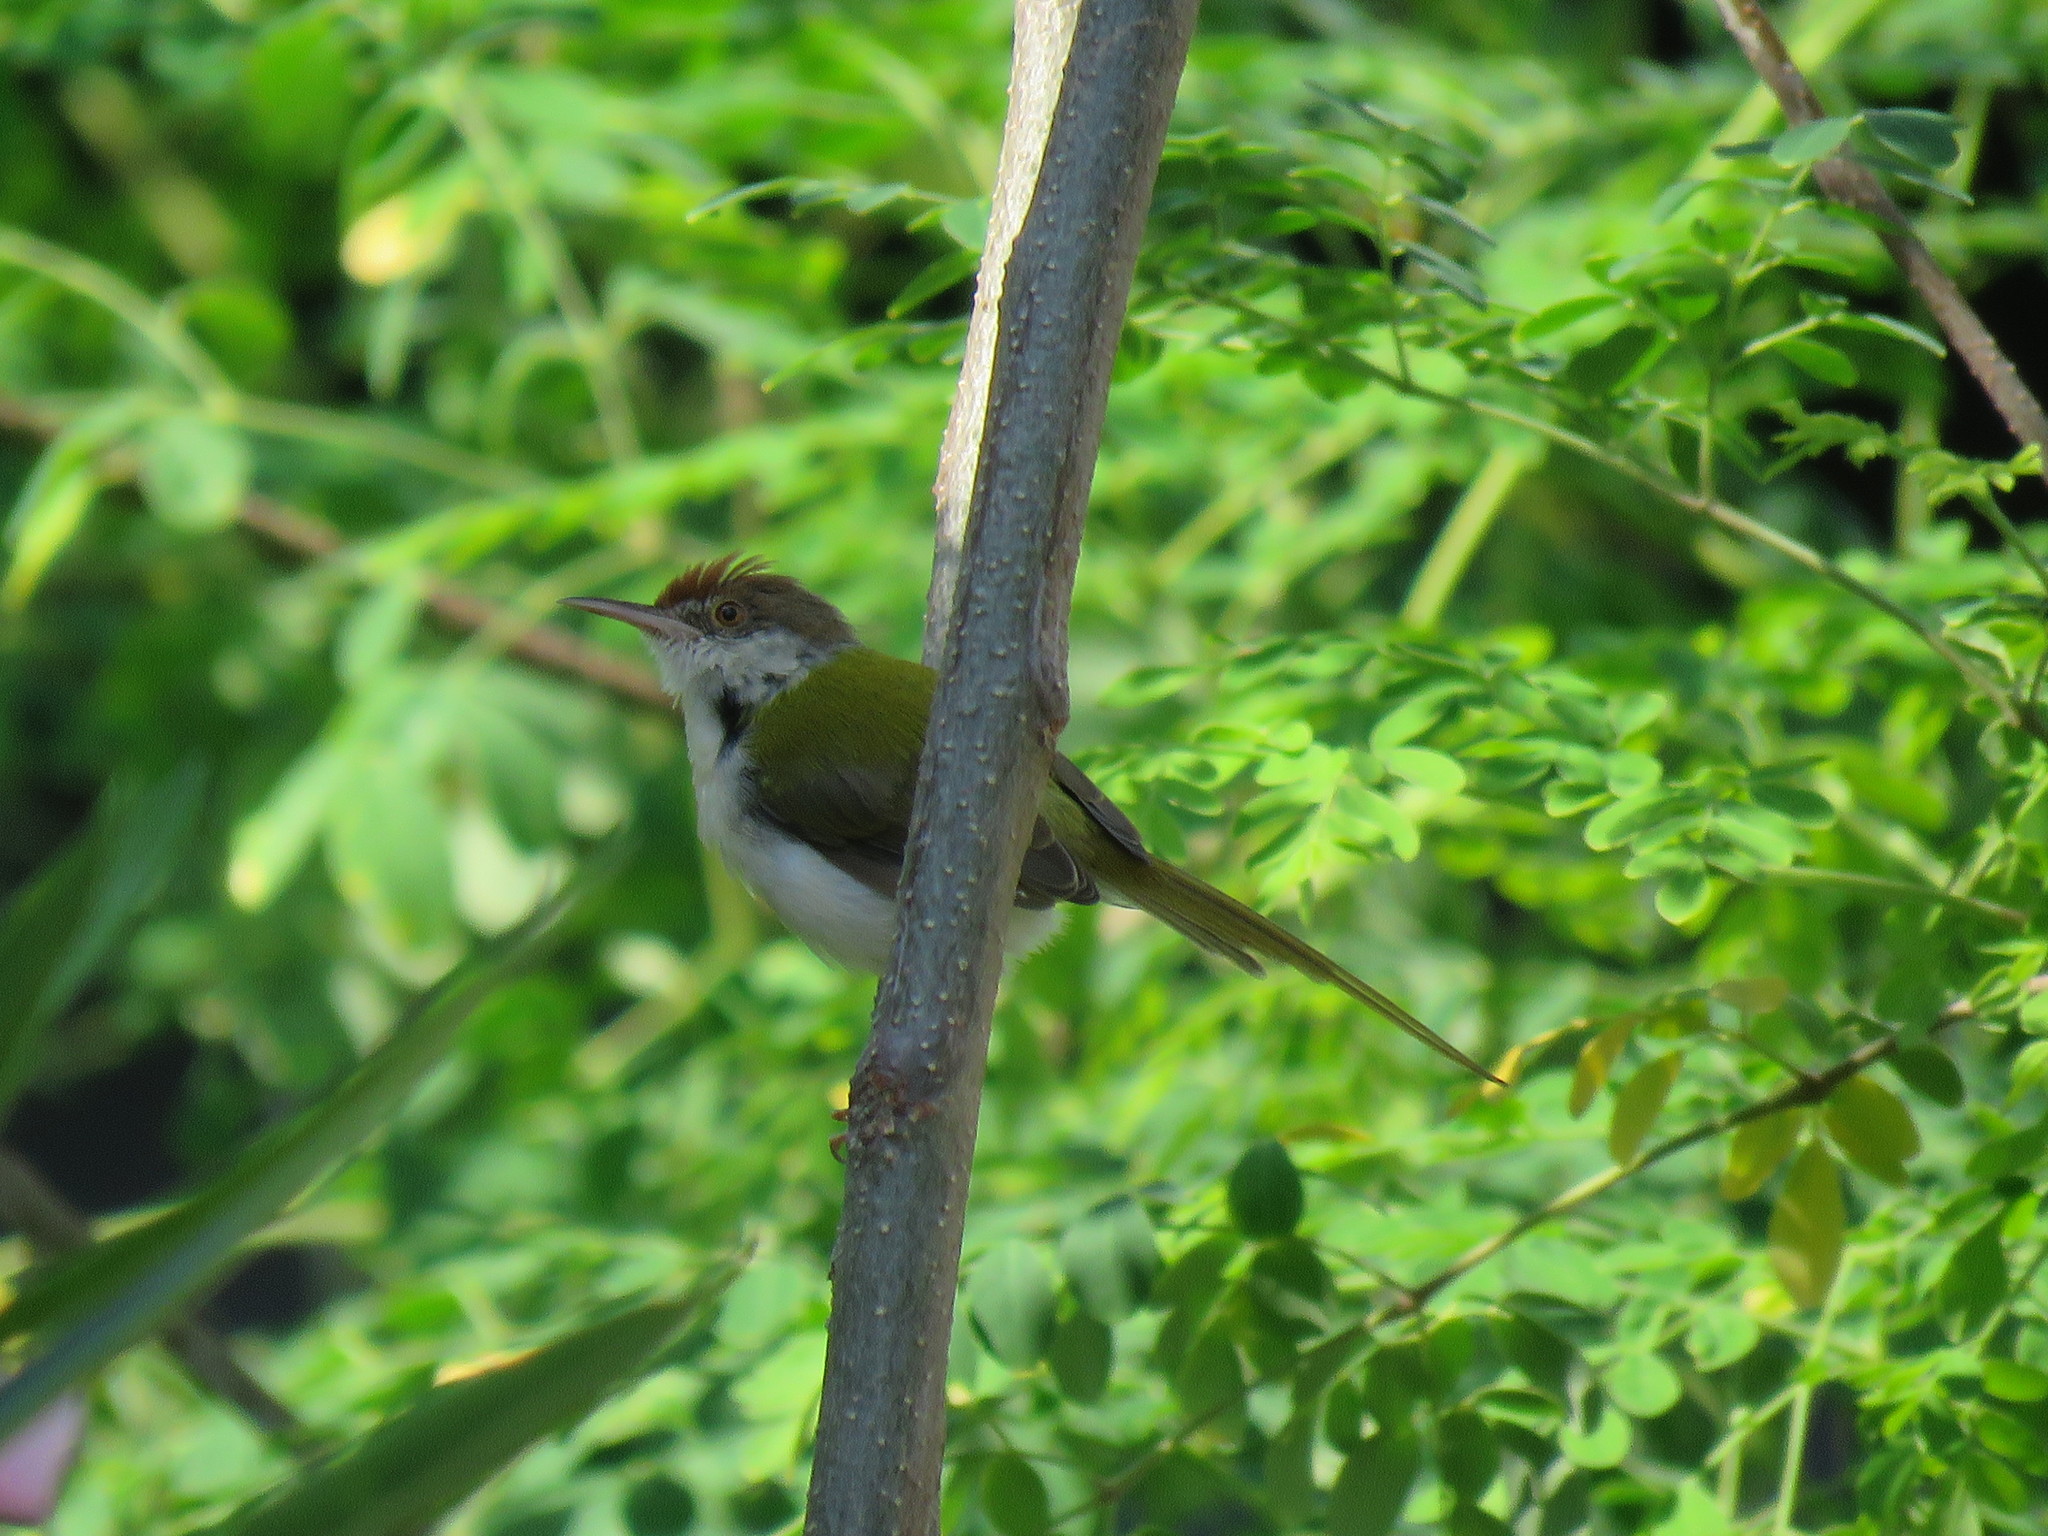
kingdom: Animalia
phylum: Chordata
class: Aves
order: Passeriformes
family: Cisticolidae
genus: Orthotomus
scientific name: Orthotomus sutorius
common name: Common tailorbird
